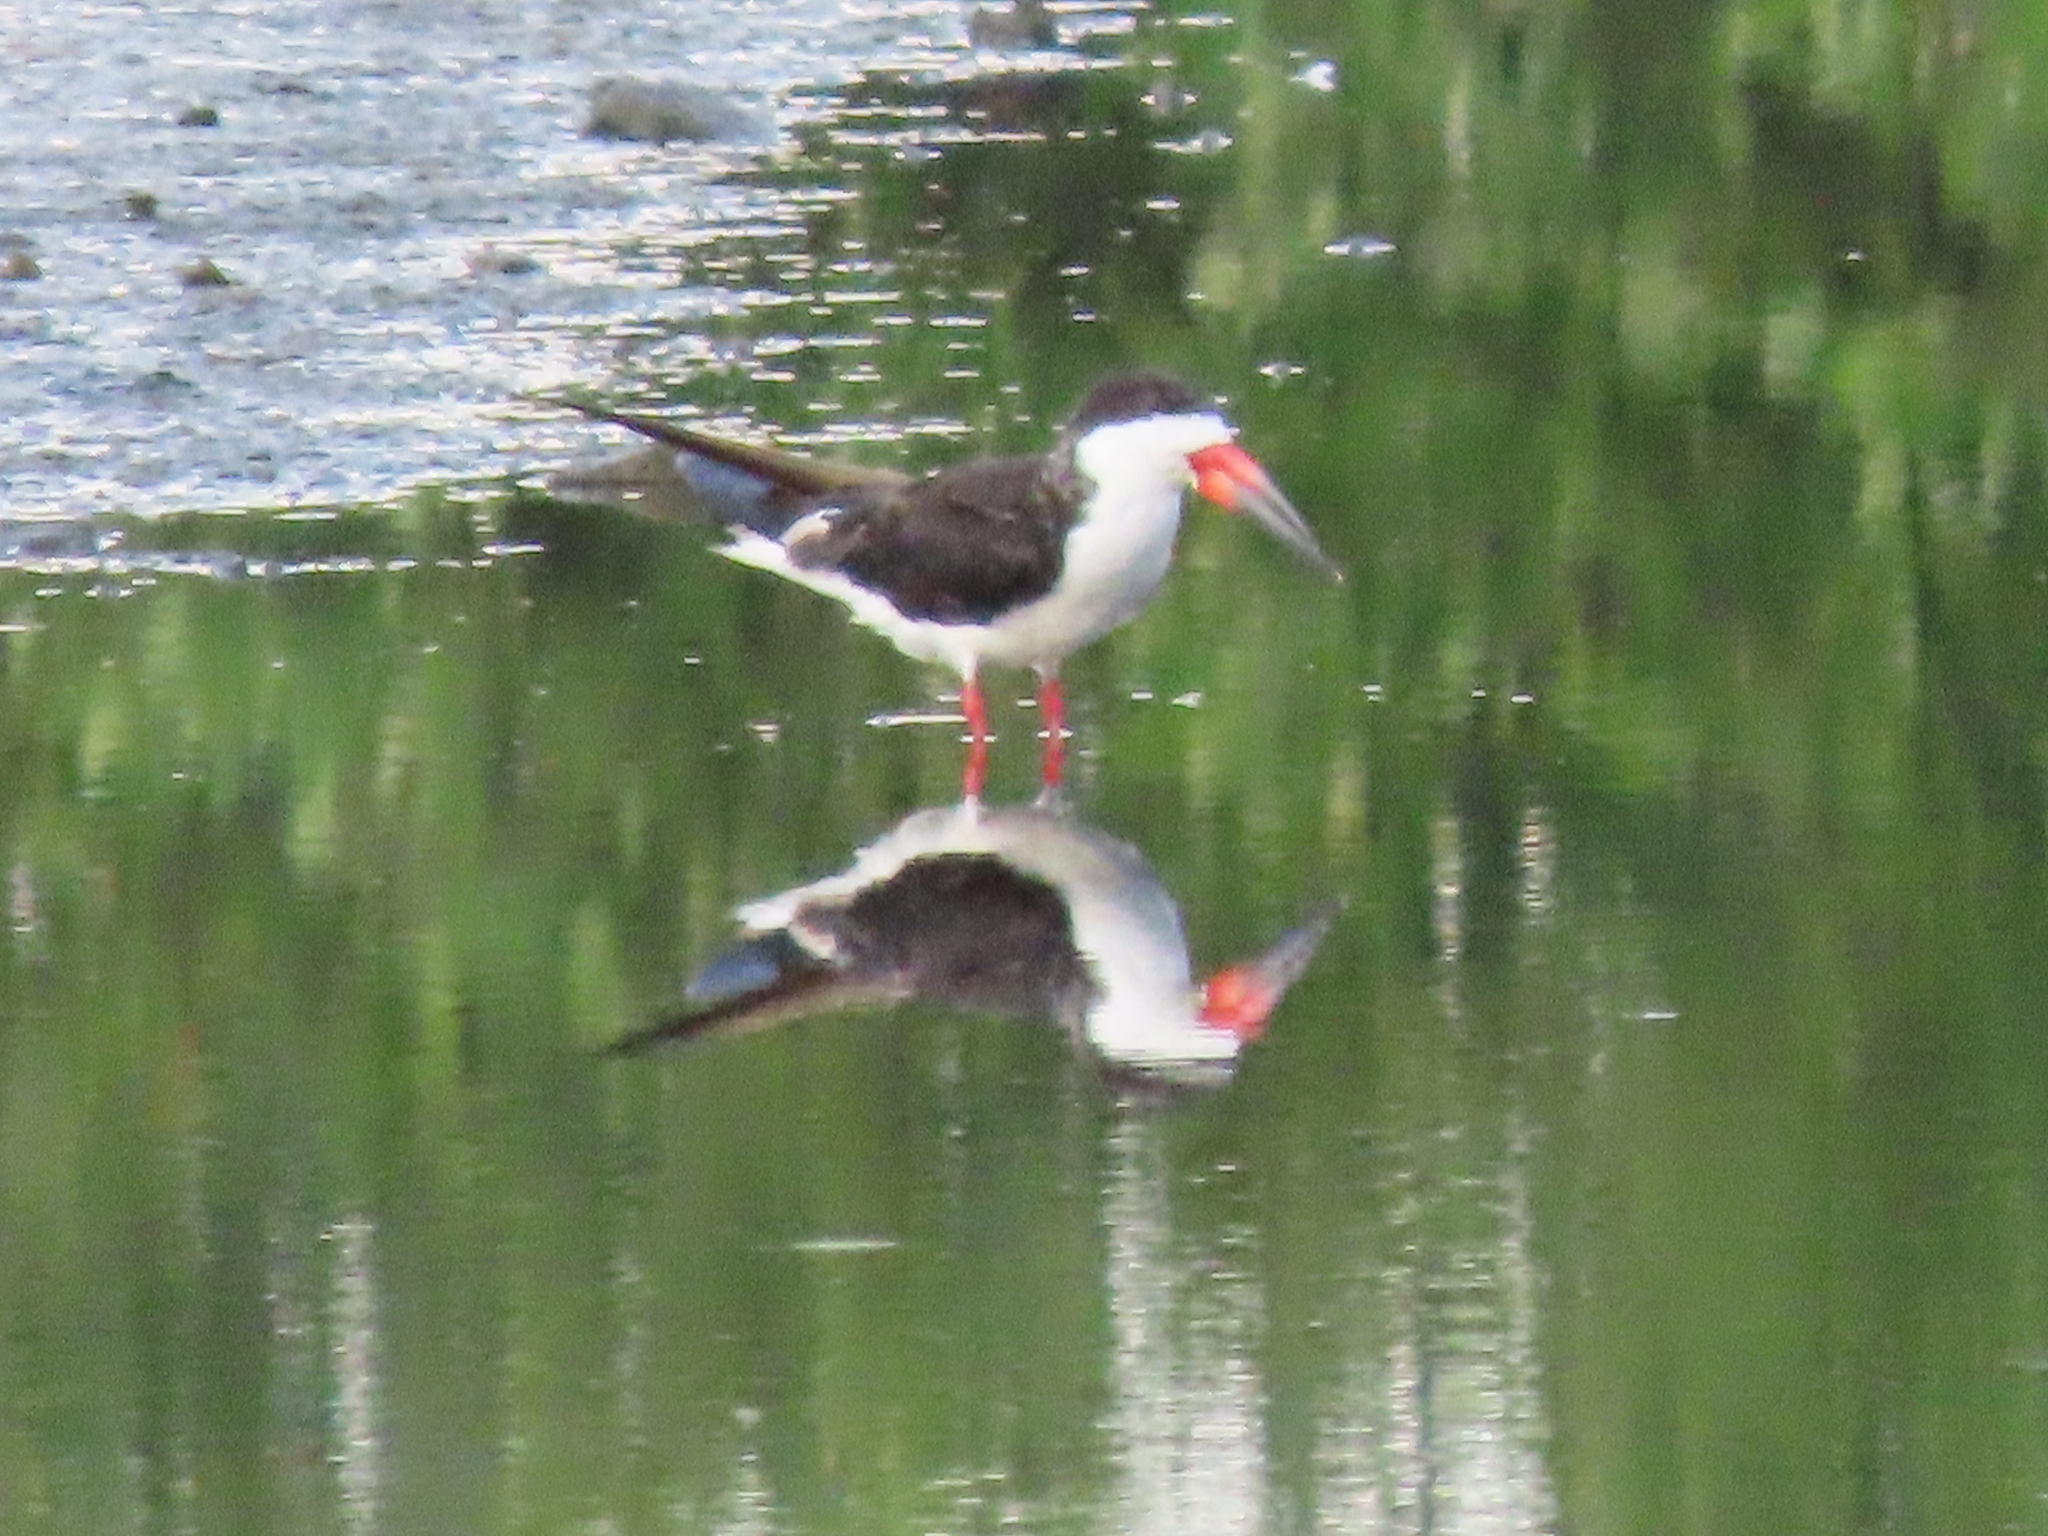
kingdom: Animalia
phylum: Chordata
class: Aves
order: Charadriiformes
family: Laridae
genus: Rynchops
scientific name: Rynchops niger
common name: Black skimmer
